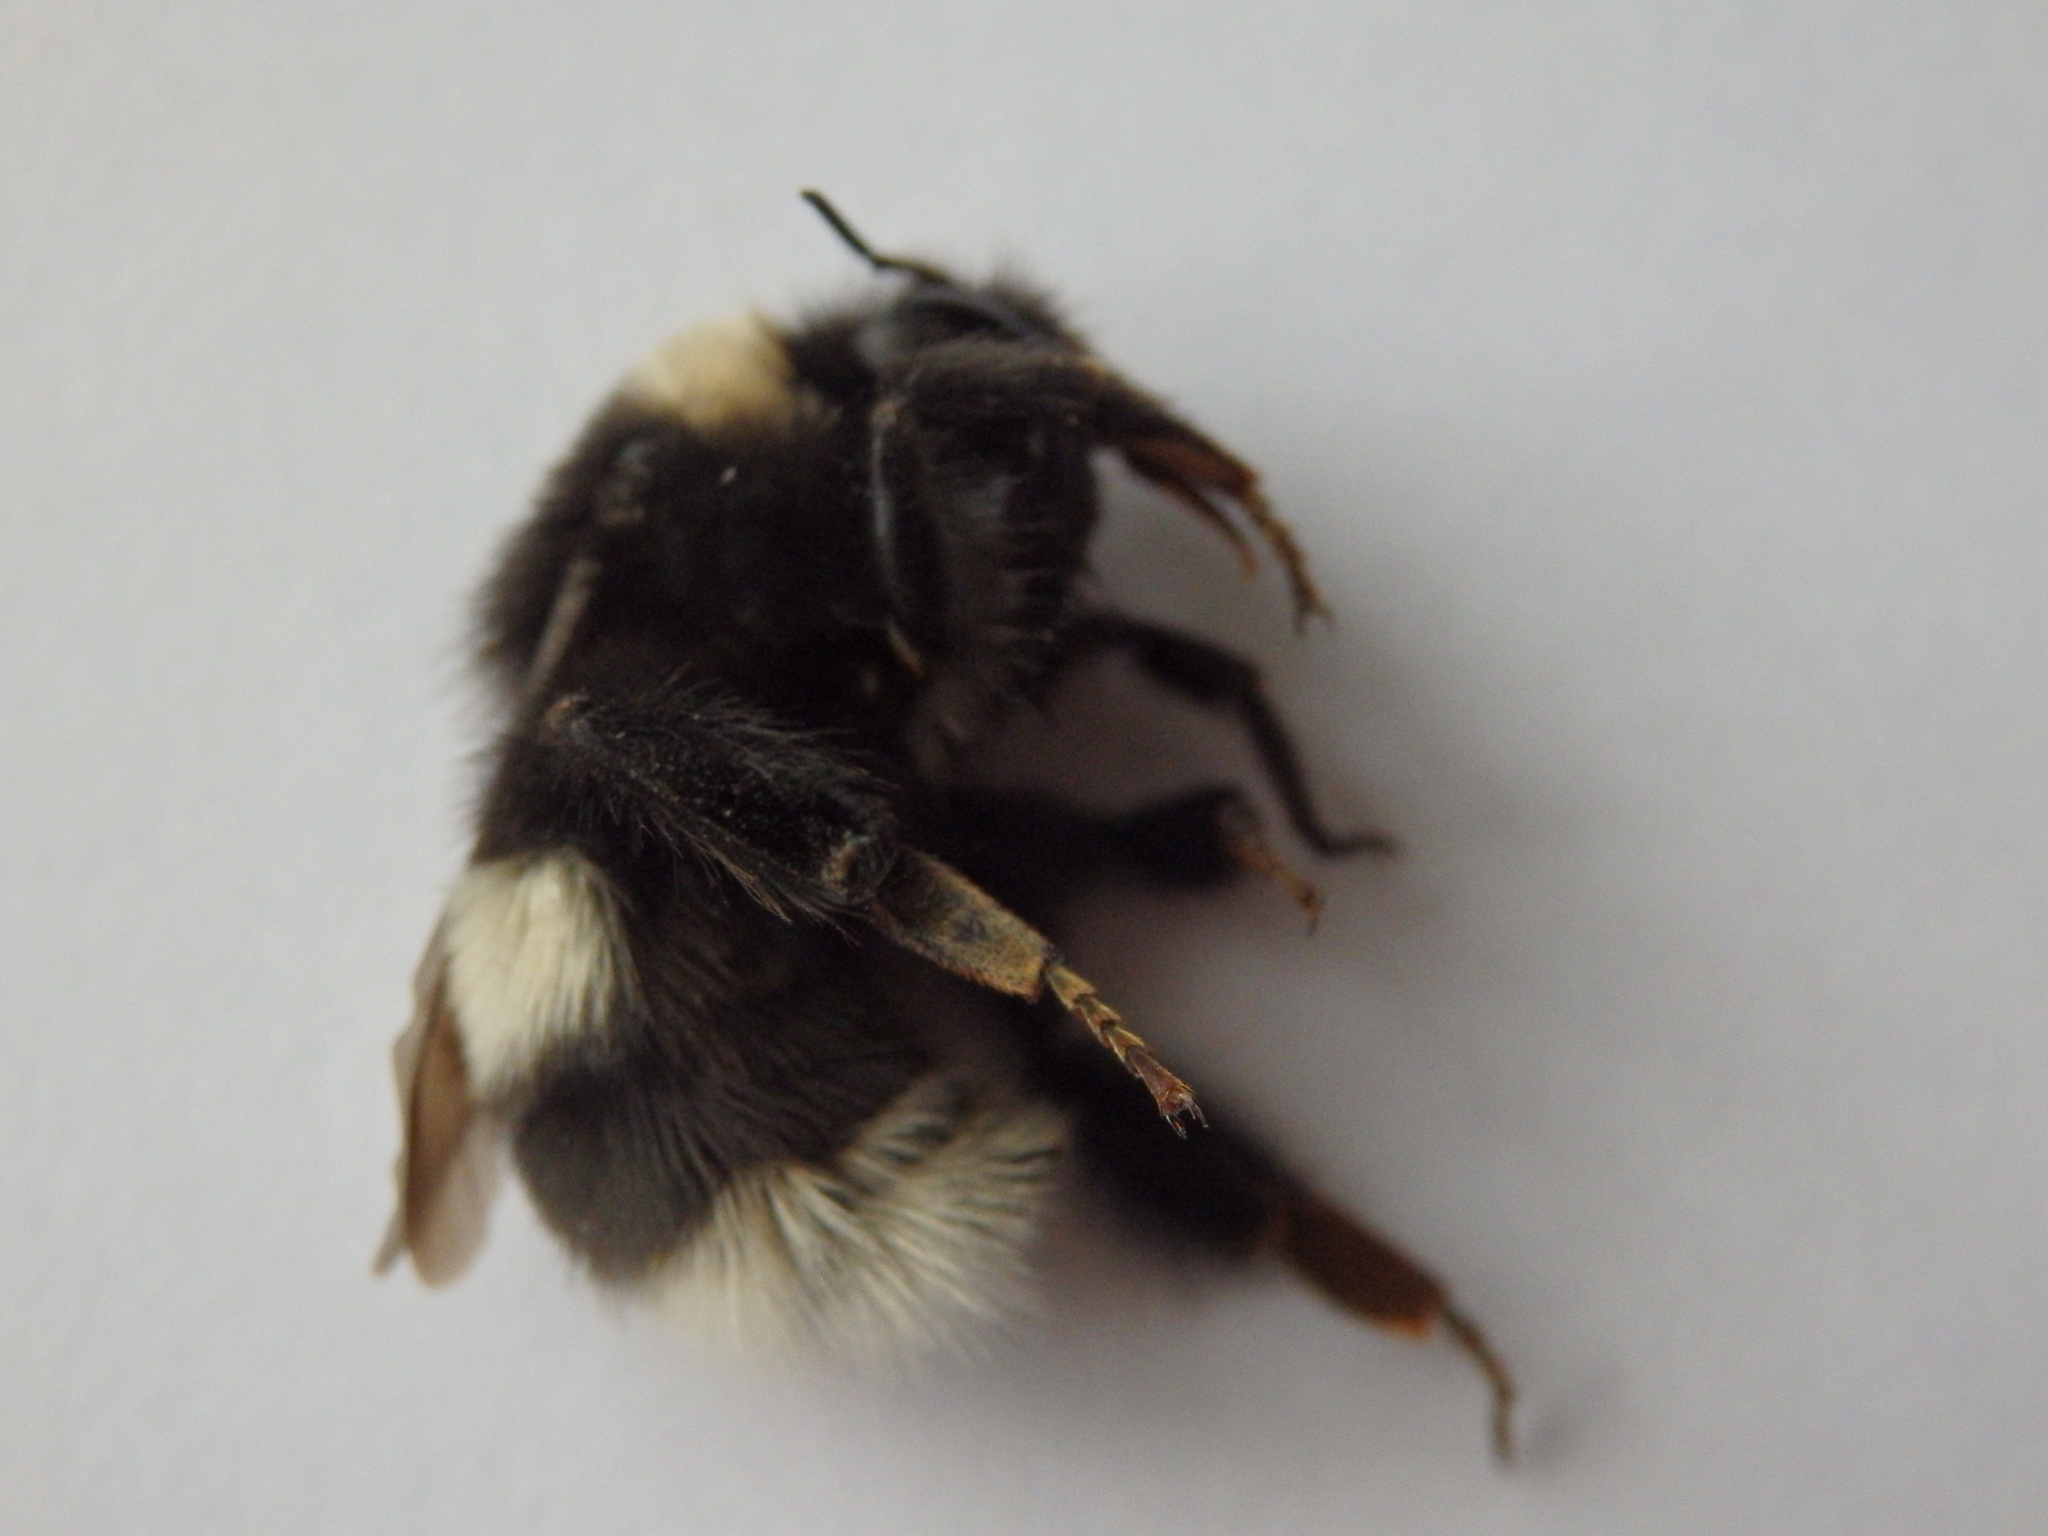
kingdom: Animalia
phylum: Arthropoda
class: Insecta
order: Hymenoptera
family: Apidae
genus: Bombus
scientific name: Bombus cryptarum
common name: Cryptic bumblebee
